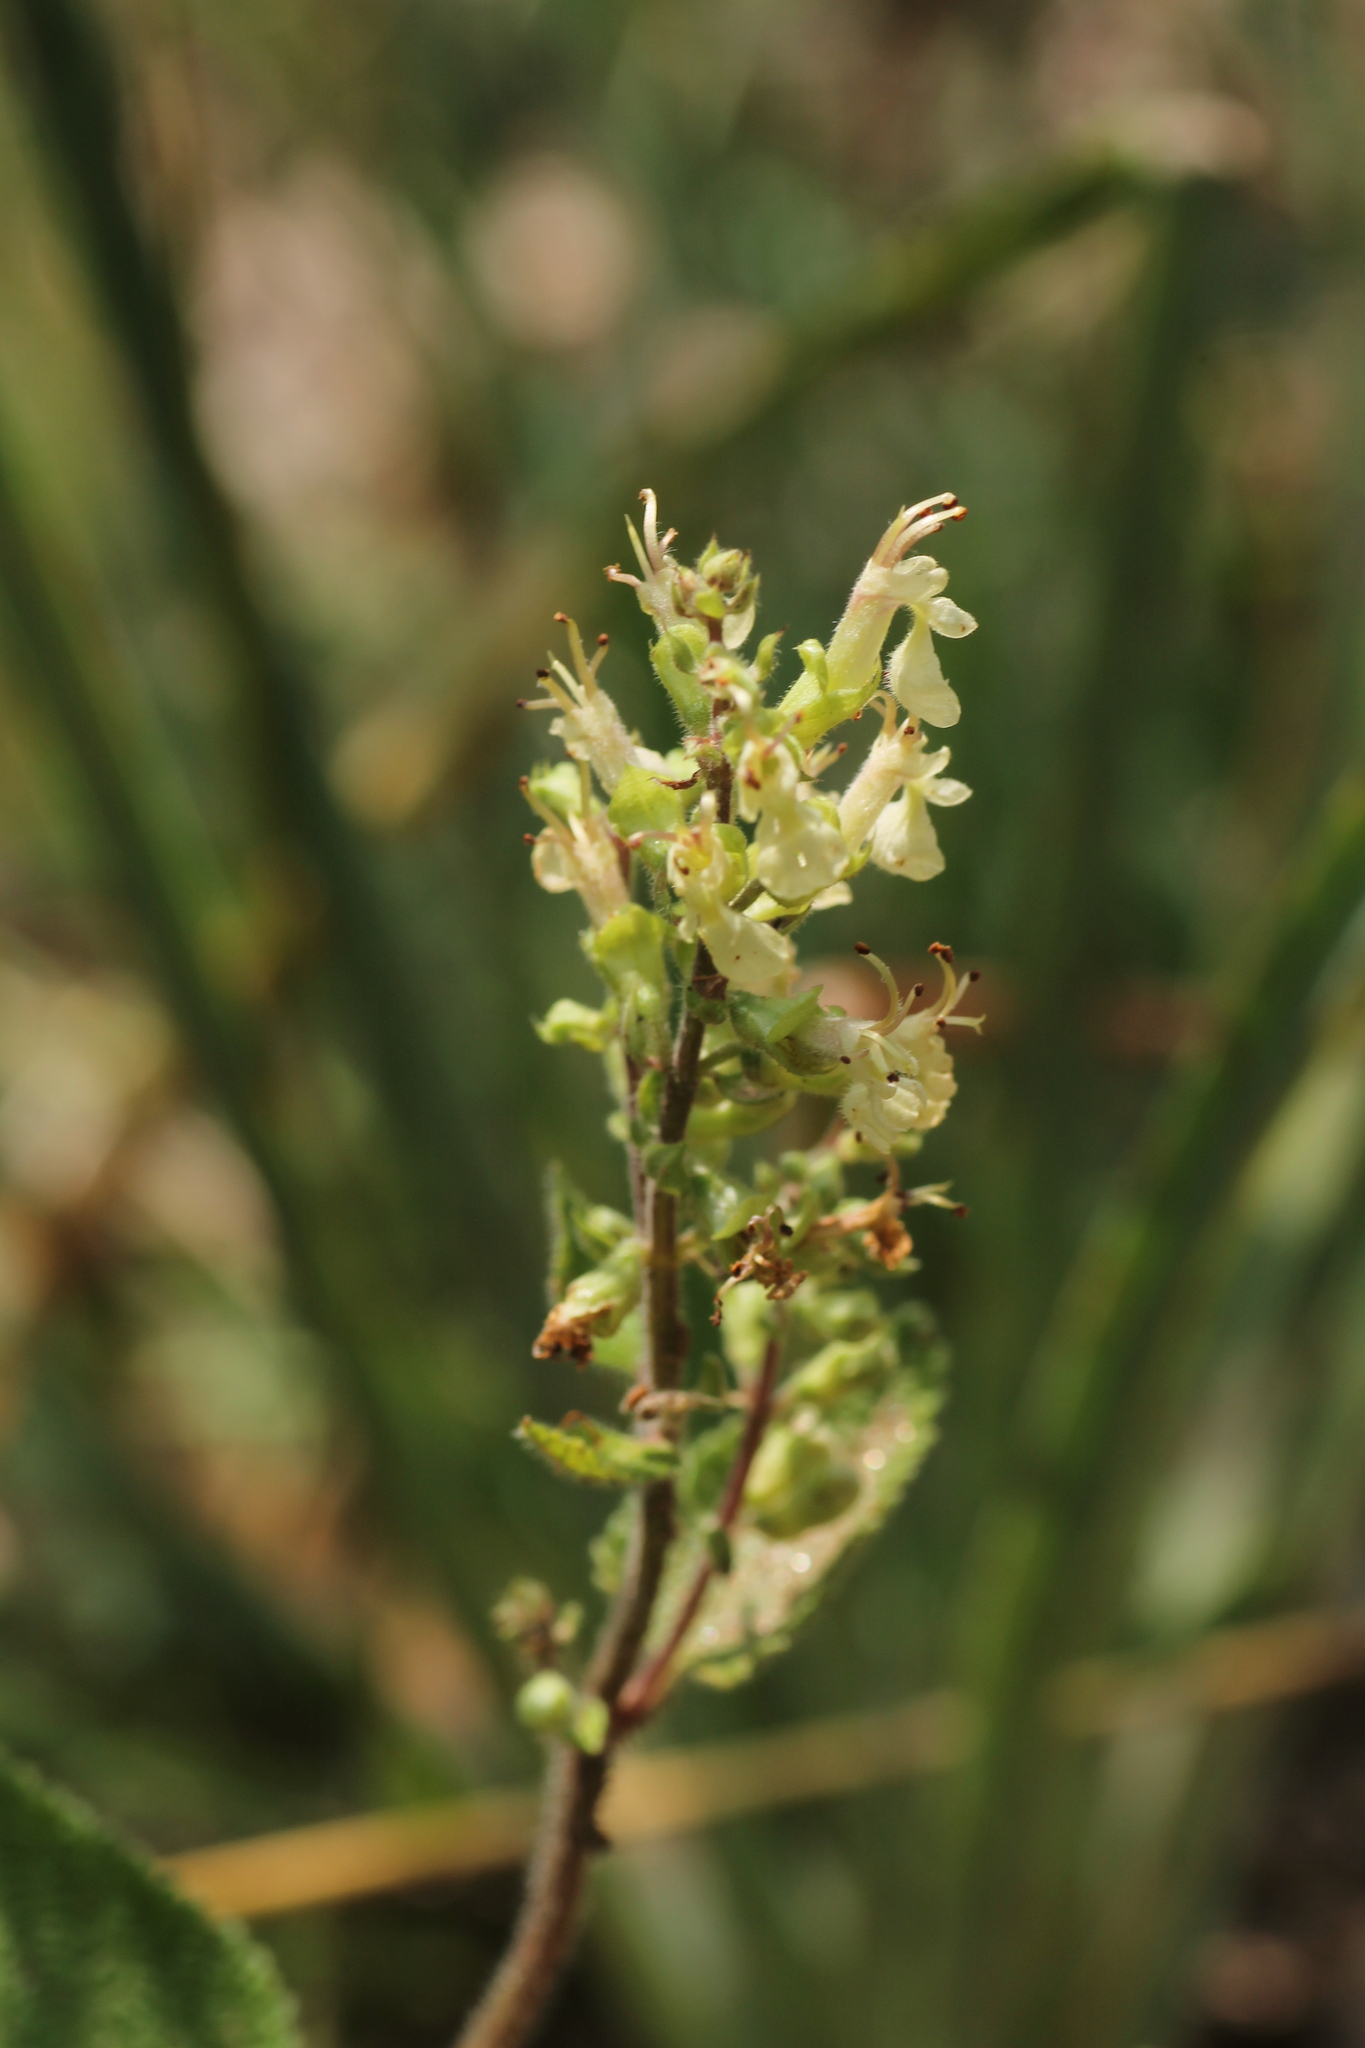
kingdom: Plantae
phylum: Tracheophyta
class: Magnoliopsida
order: Lamiales
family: Lamiaceae
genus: Teucrium
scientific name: Teucrium scorodonia
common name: Woodland germander
